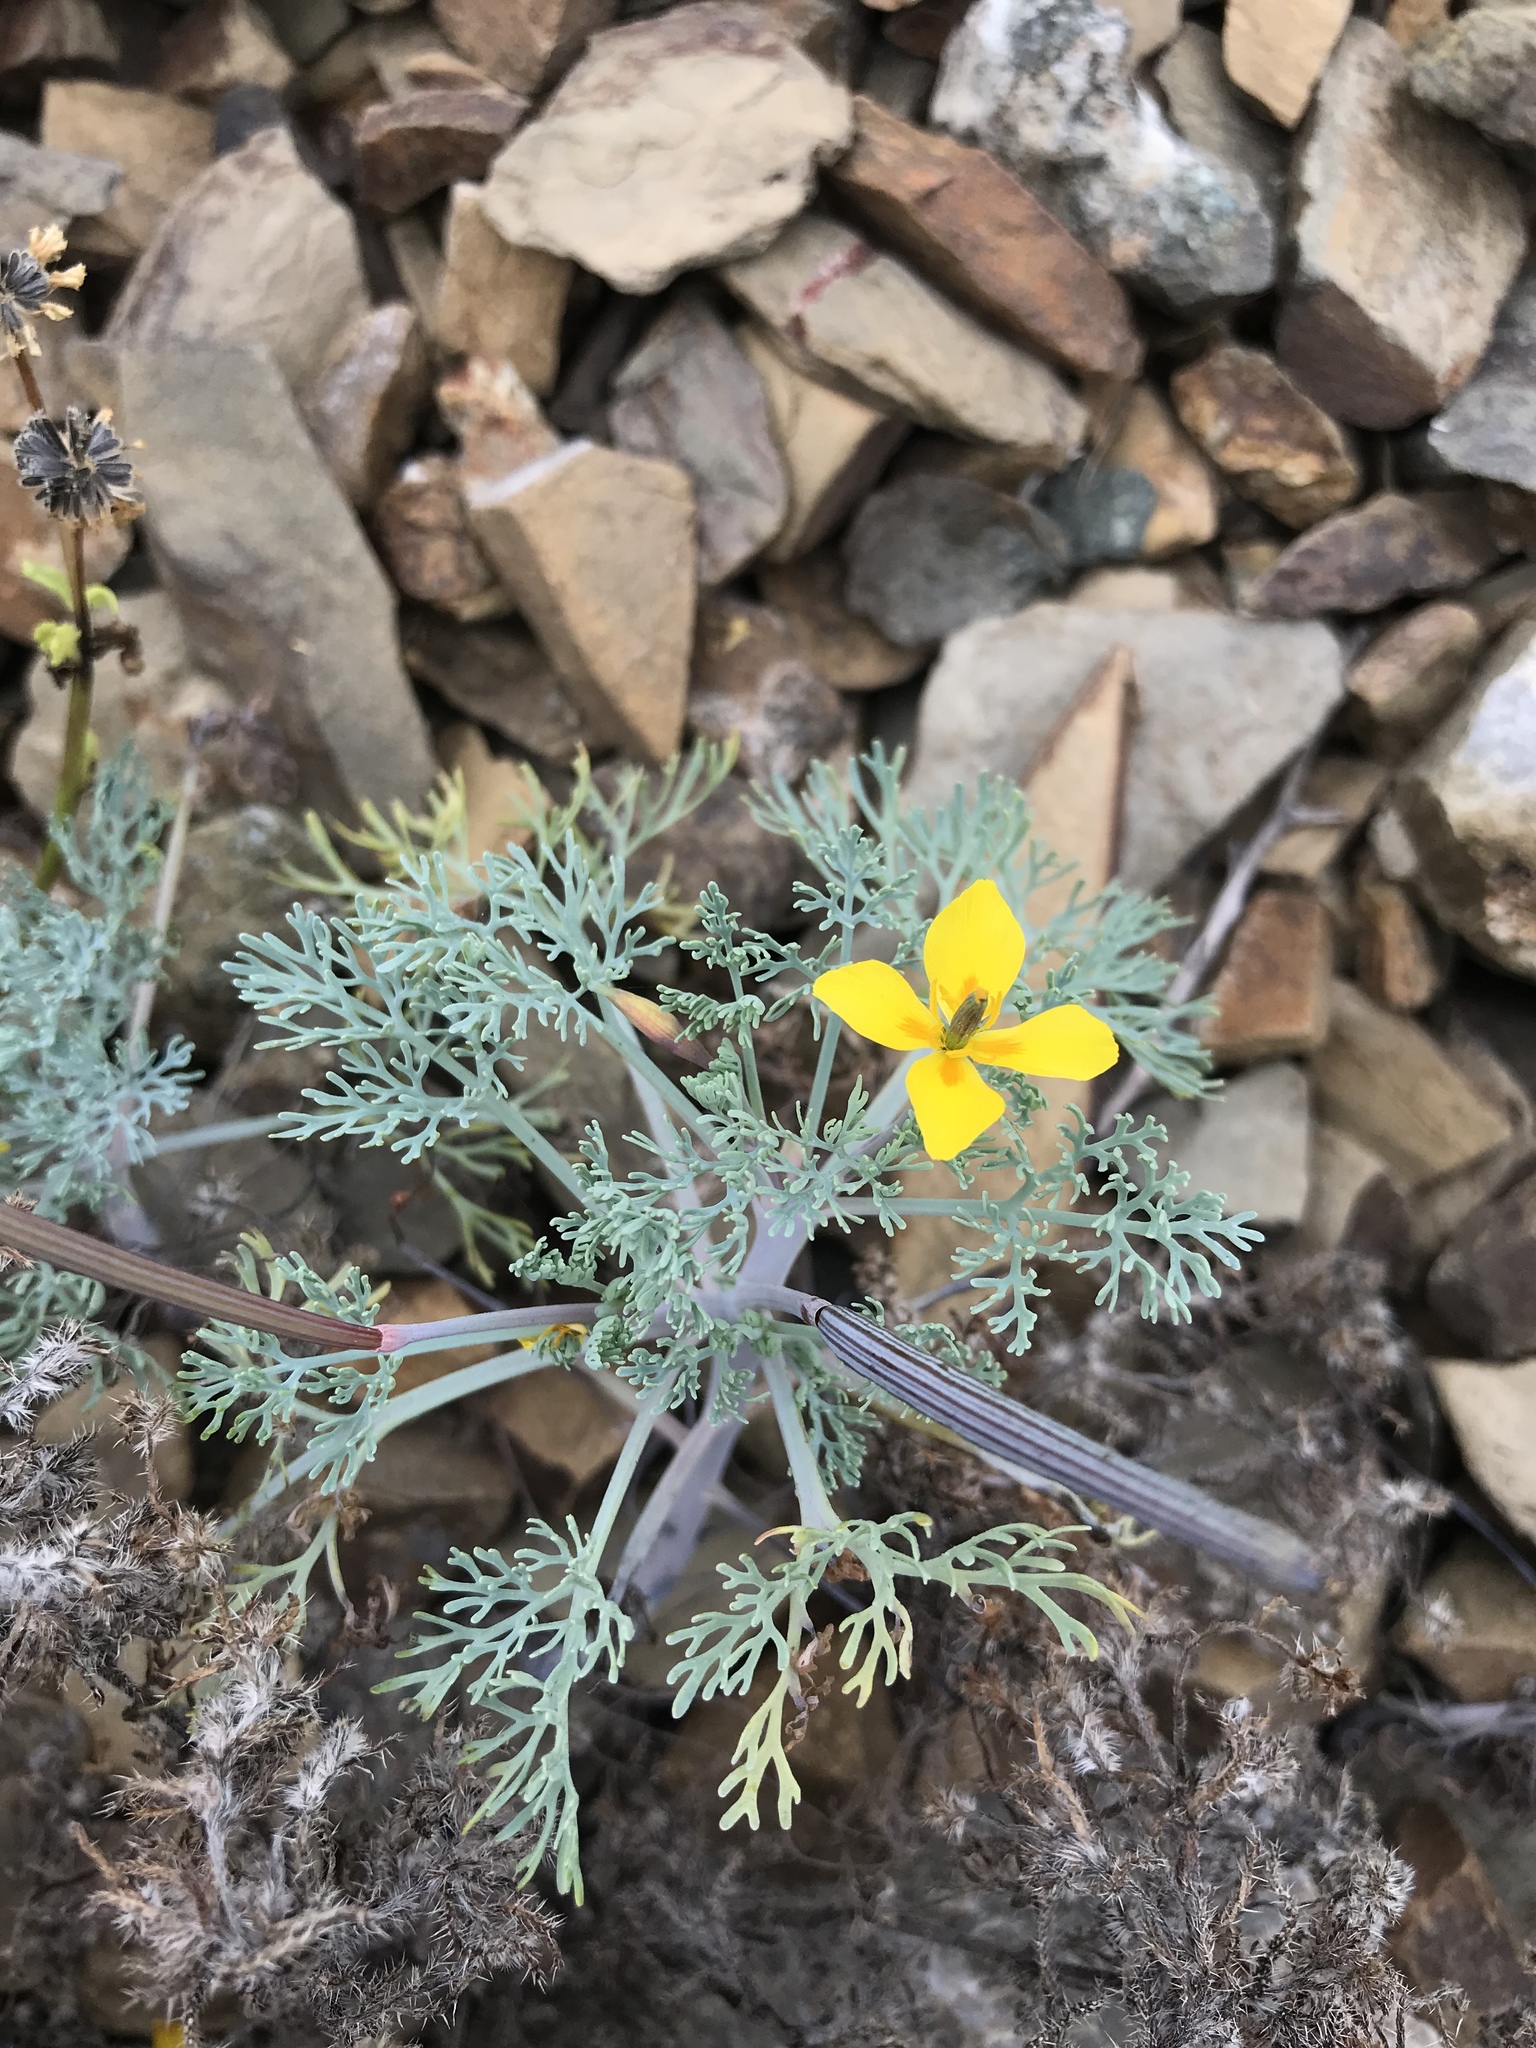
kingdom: Plantae
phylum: Tracheophyta
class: Magnoliopsida
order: Ranunculales
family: Papaveraceae
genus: Eschscholzia
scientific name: Eschscholzia ramosa
